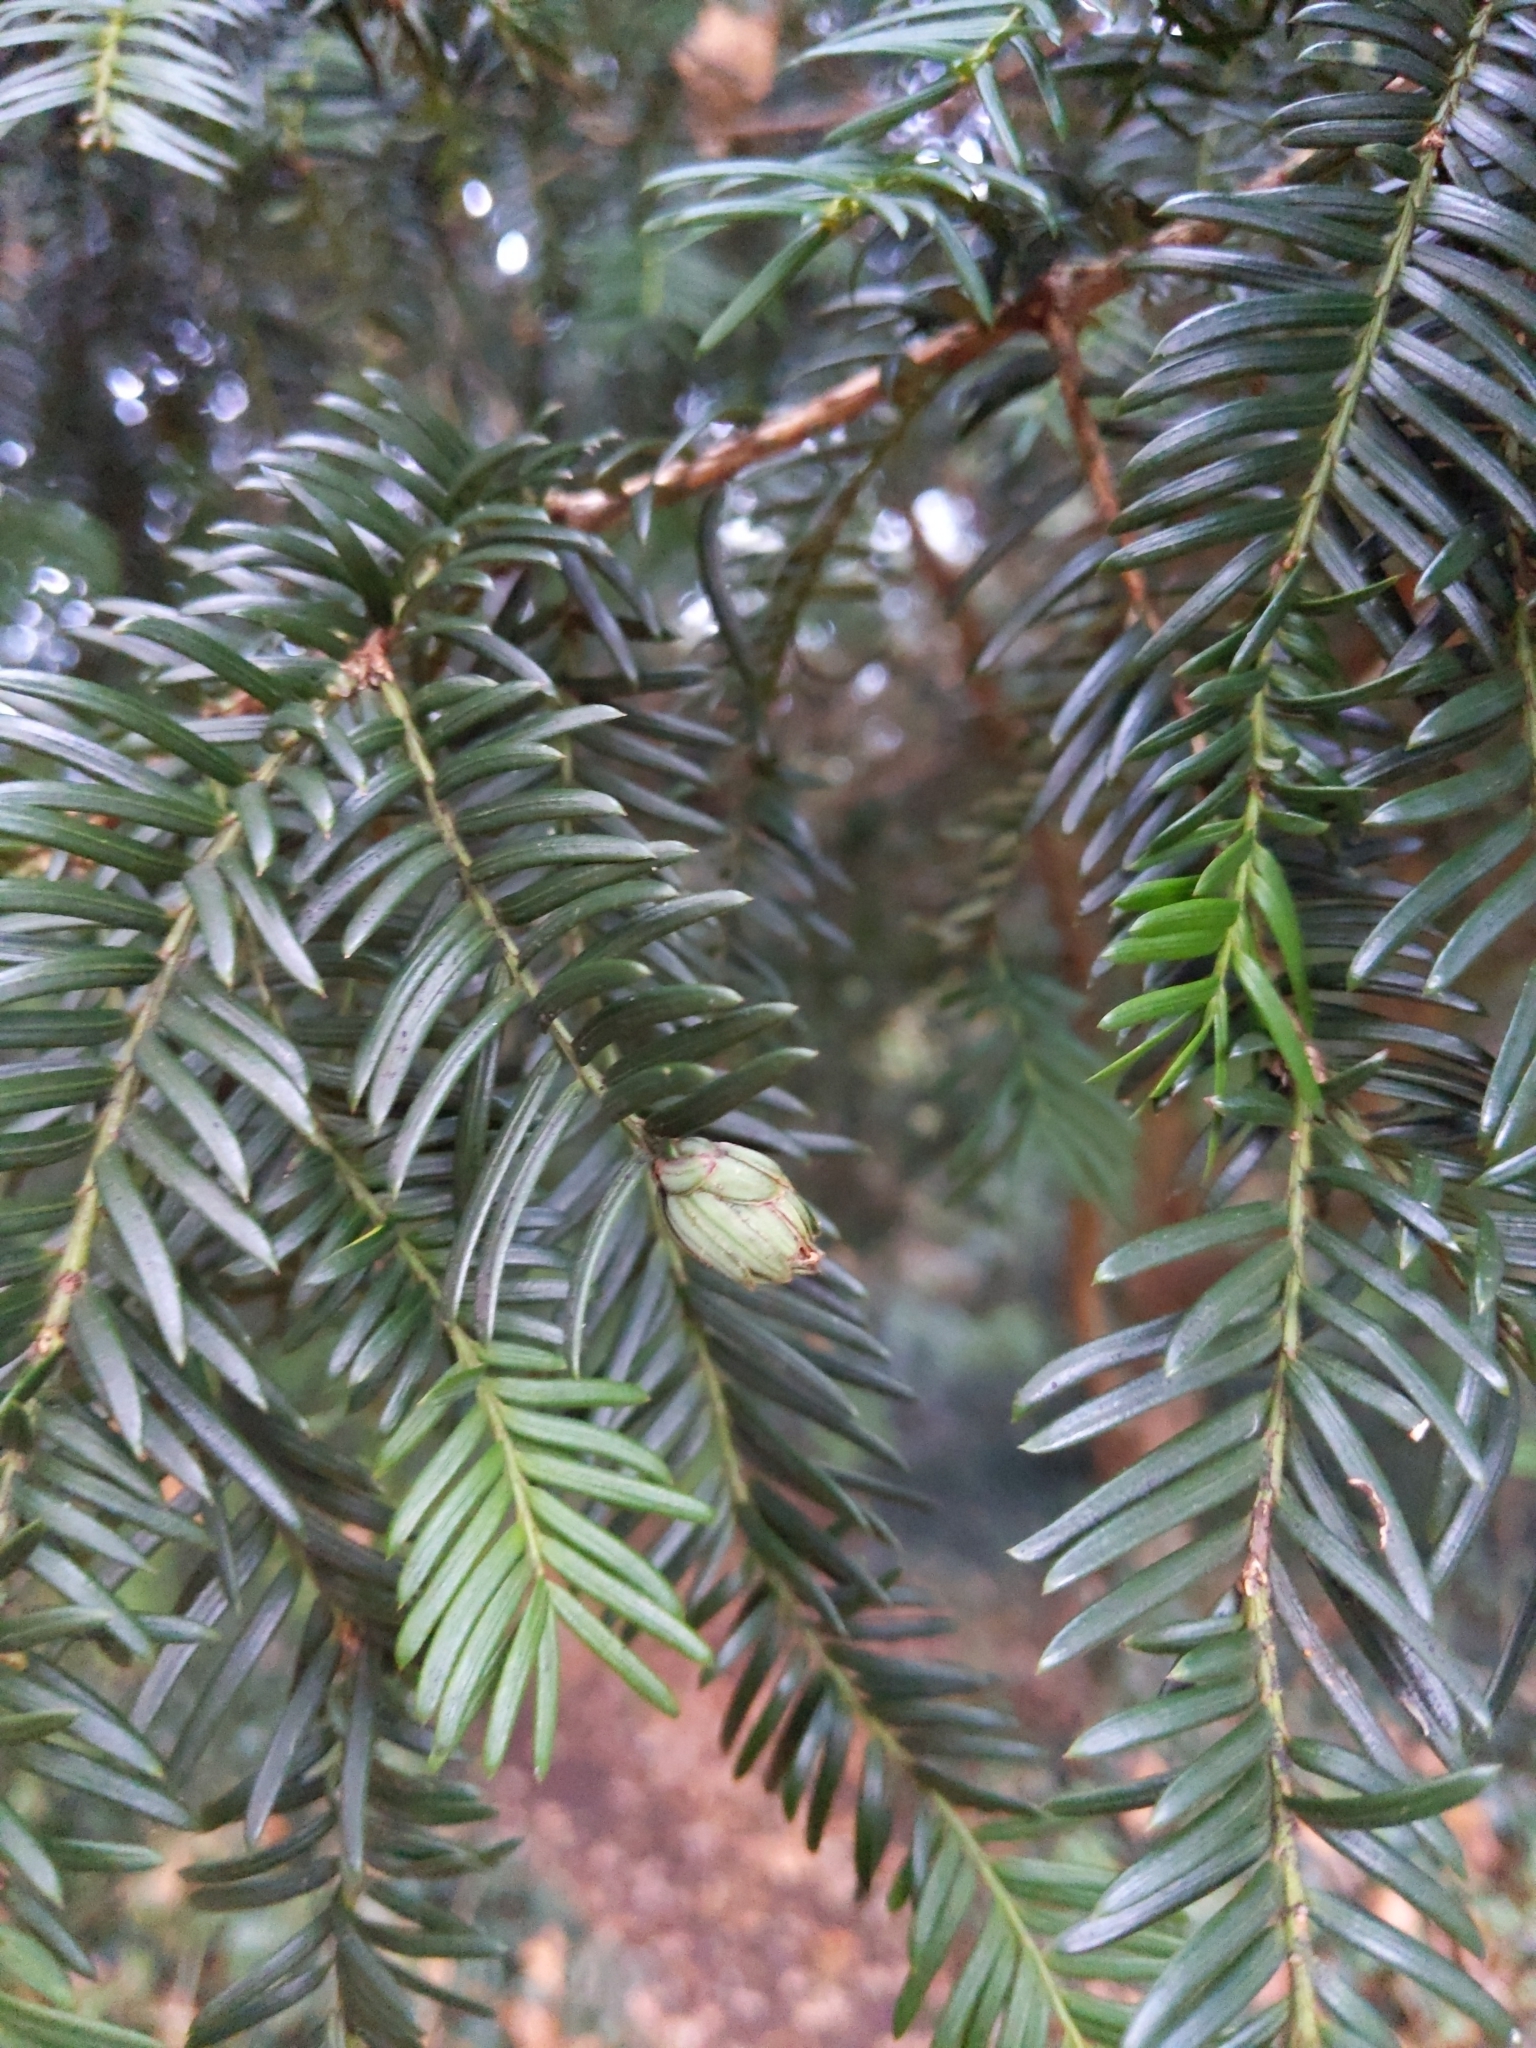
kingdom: Animalia
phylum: Arthropoda
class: Insecta
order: Diptera
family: Cecidomyiidae
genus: Taxomyia
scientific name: Taxomyia taxi
